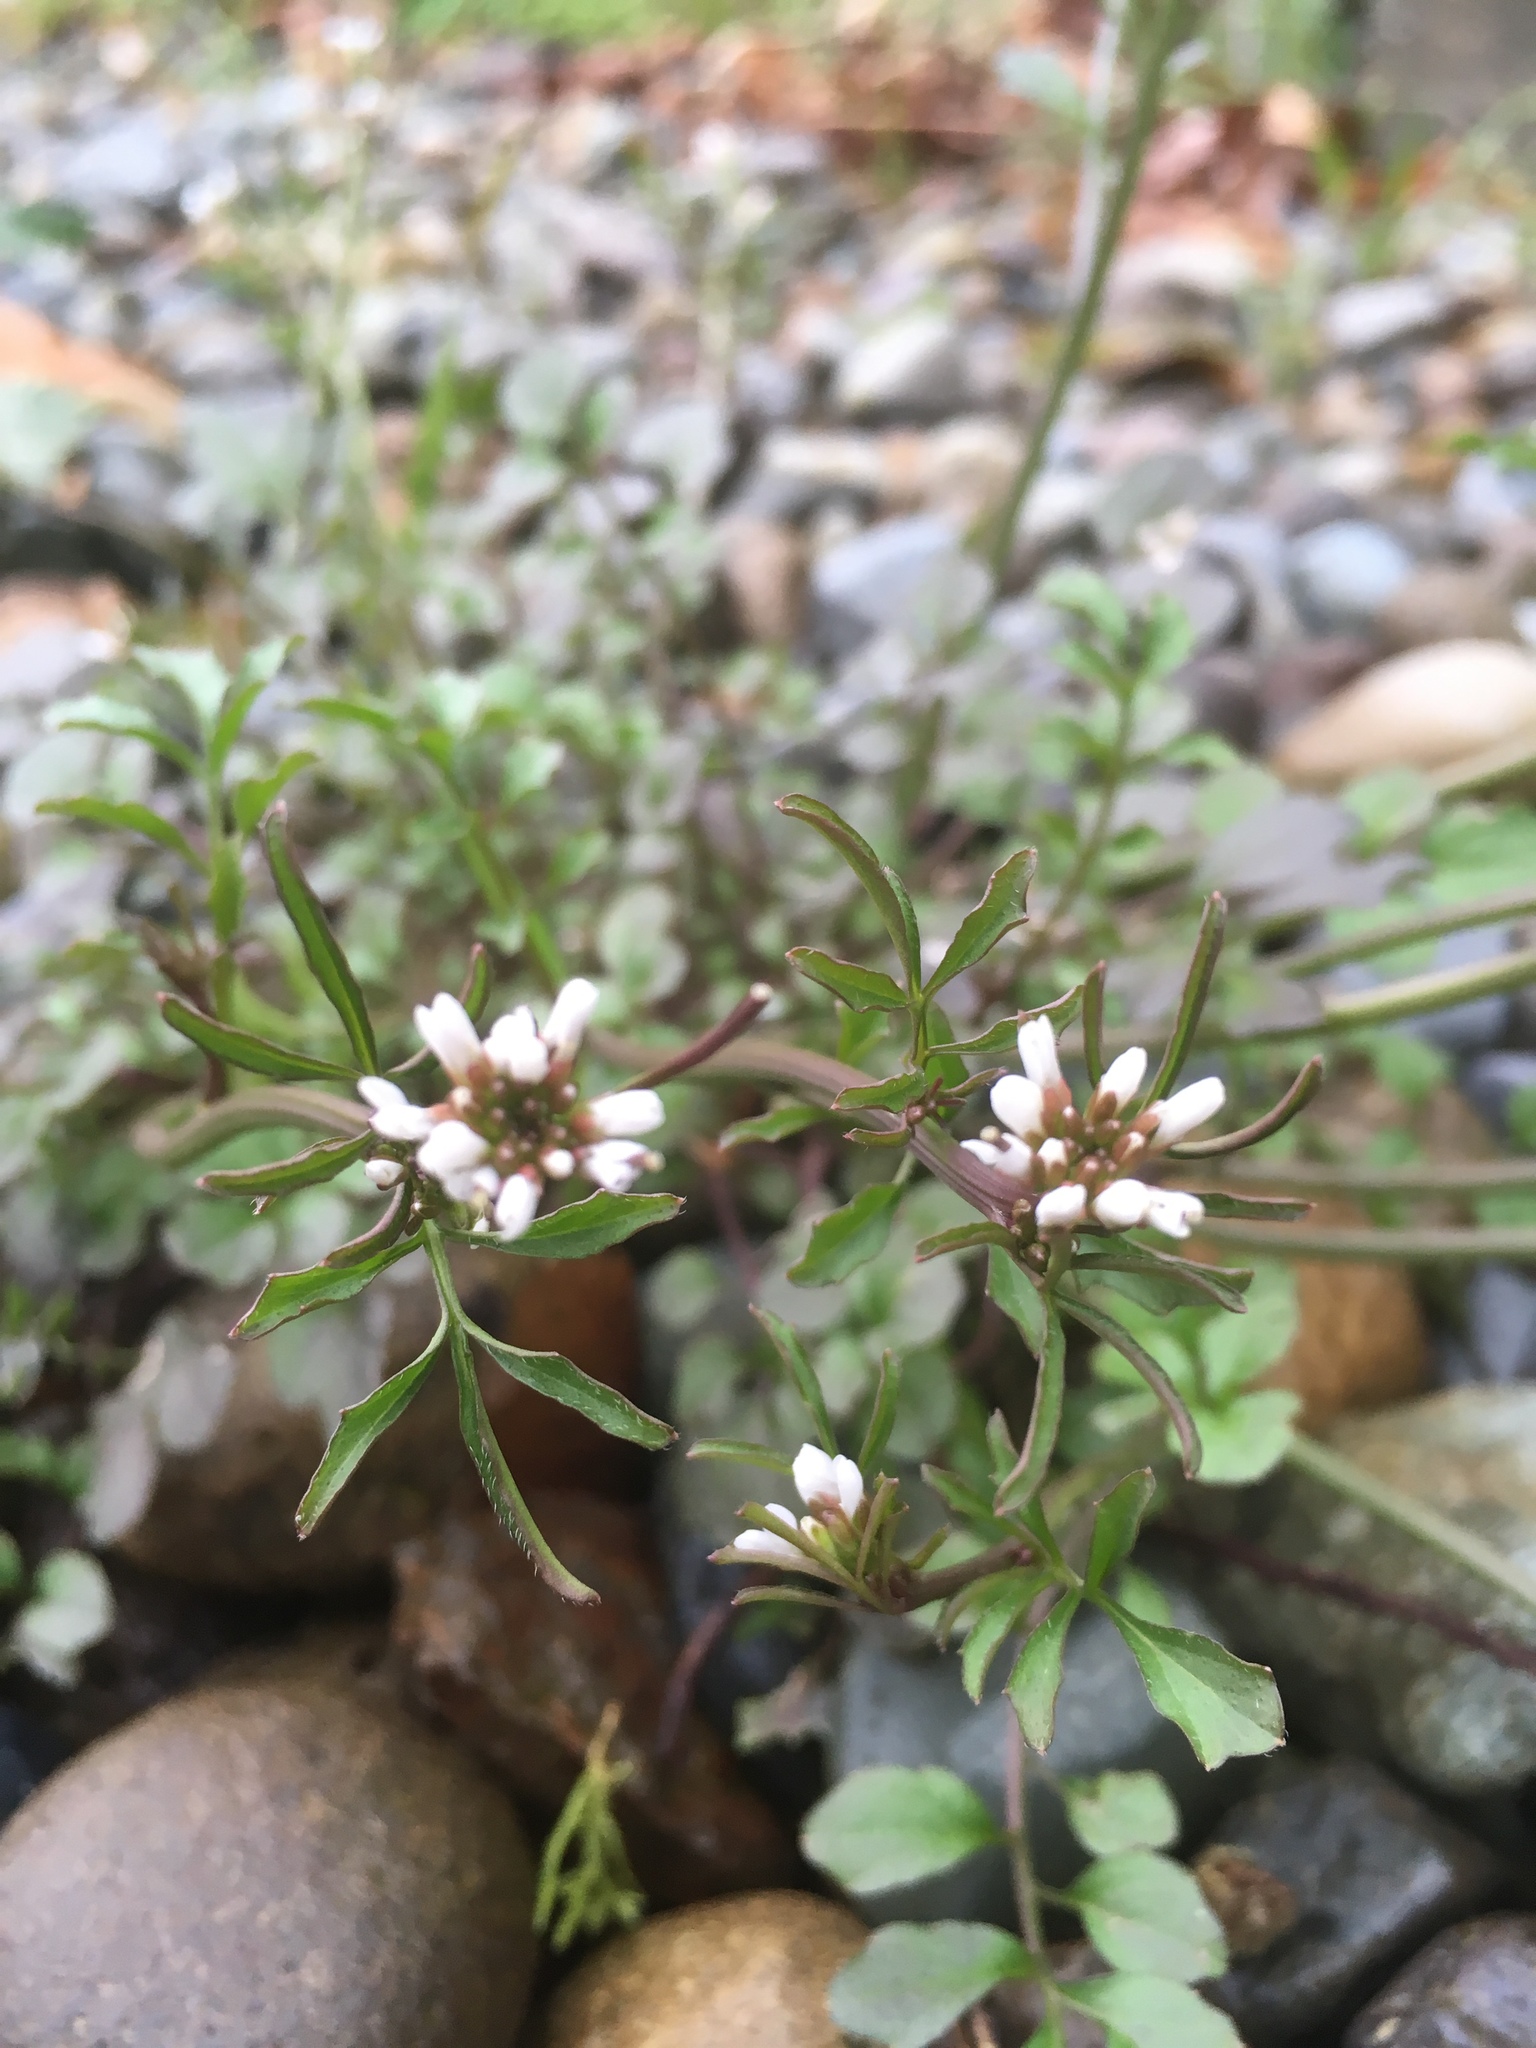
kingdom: Plantae
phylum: Tracheophyta
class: Magnoliopsida
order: Brassicales
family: Brassicaceae
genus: Cardamine
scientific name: Cardamine hirsuta
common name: Hairy bittercress
